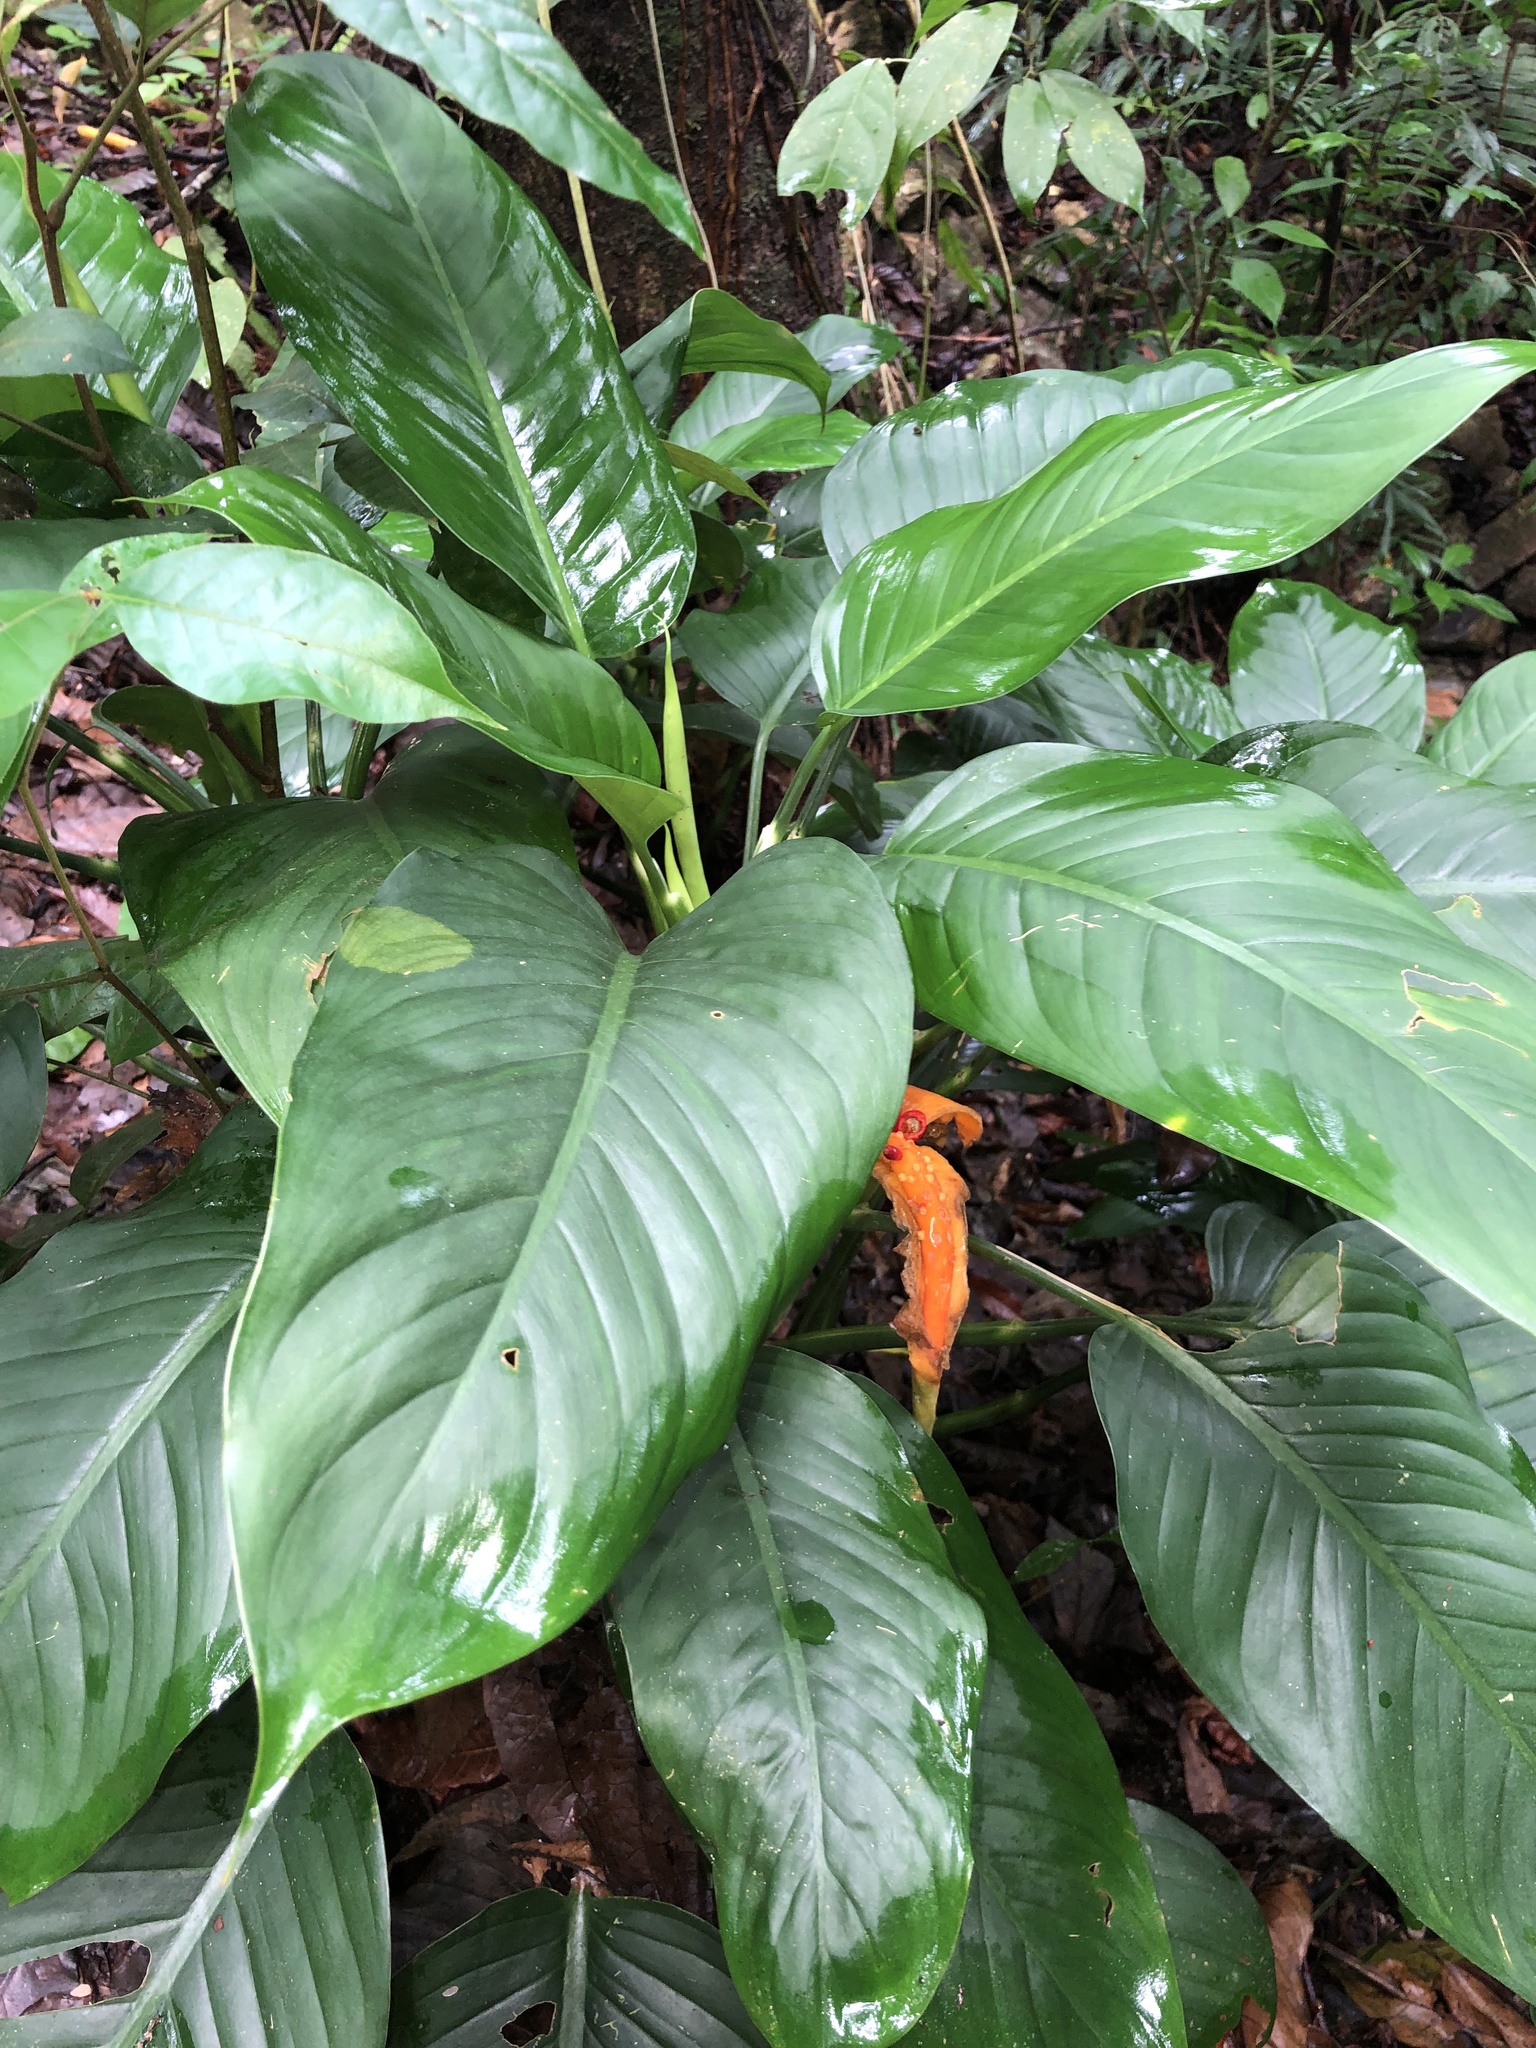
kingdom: Plantae
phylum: Tracheophyta
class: Liliopsida
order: Alismatales
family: Araceae
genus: Dieffenbachia
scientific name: Dieffenbachia wendlandii
